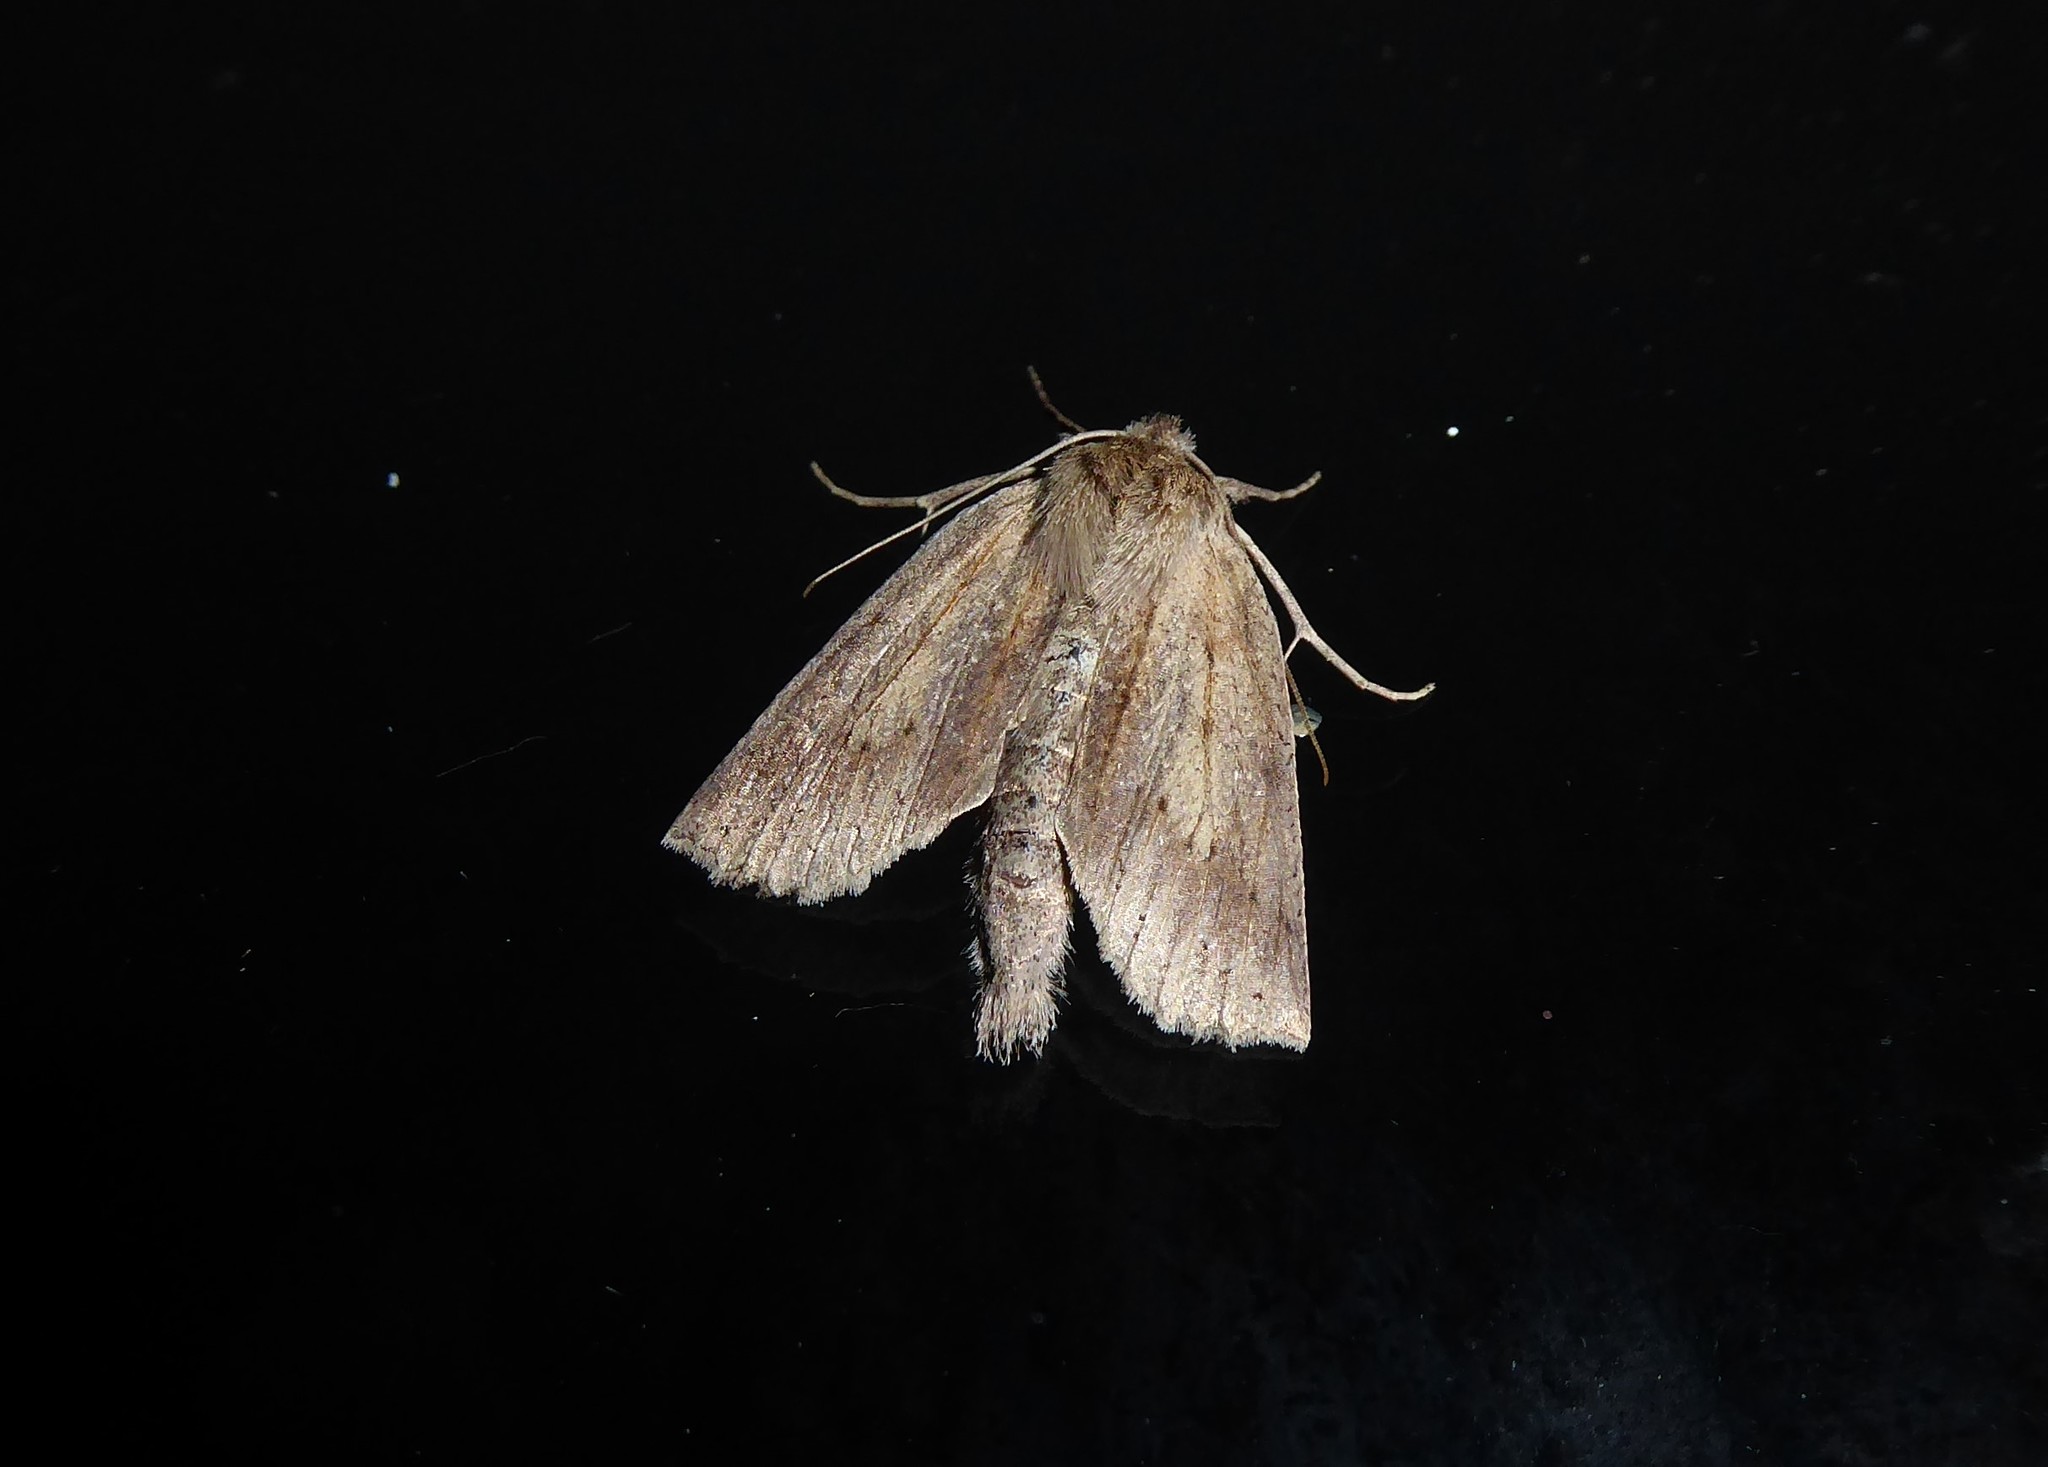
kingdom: Animalia
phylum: Arthropoda
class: Insecta
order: Lepidoptera
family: Geometridae
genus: Declana
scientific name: Declana leptomera
